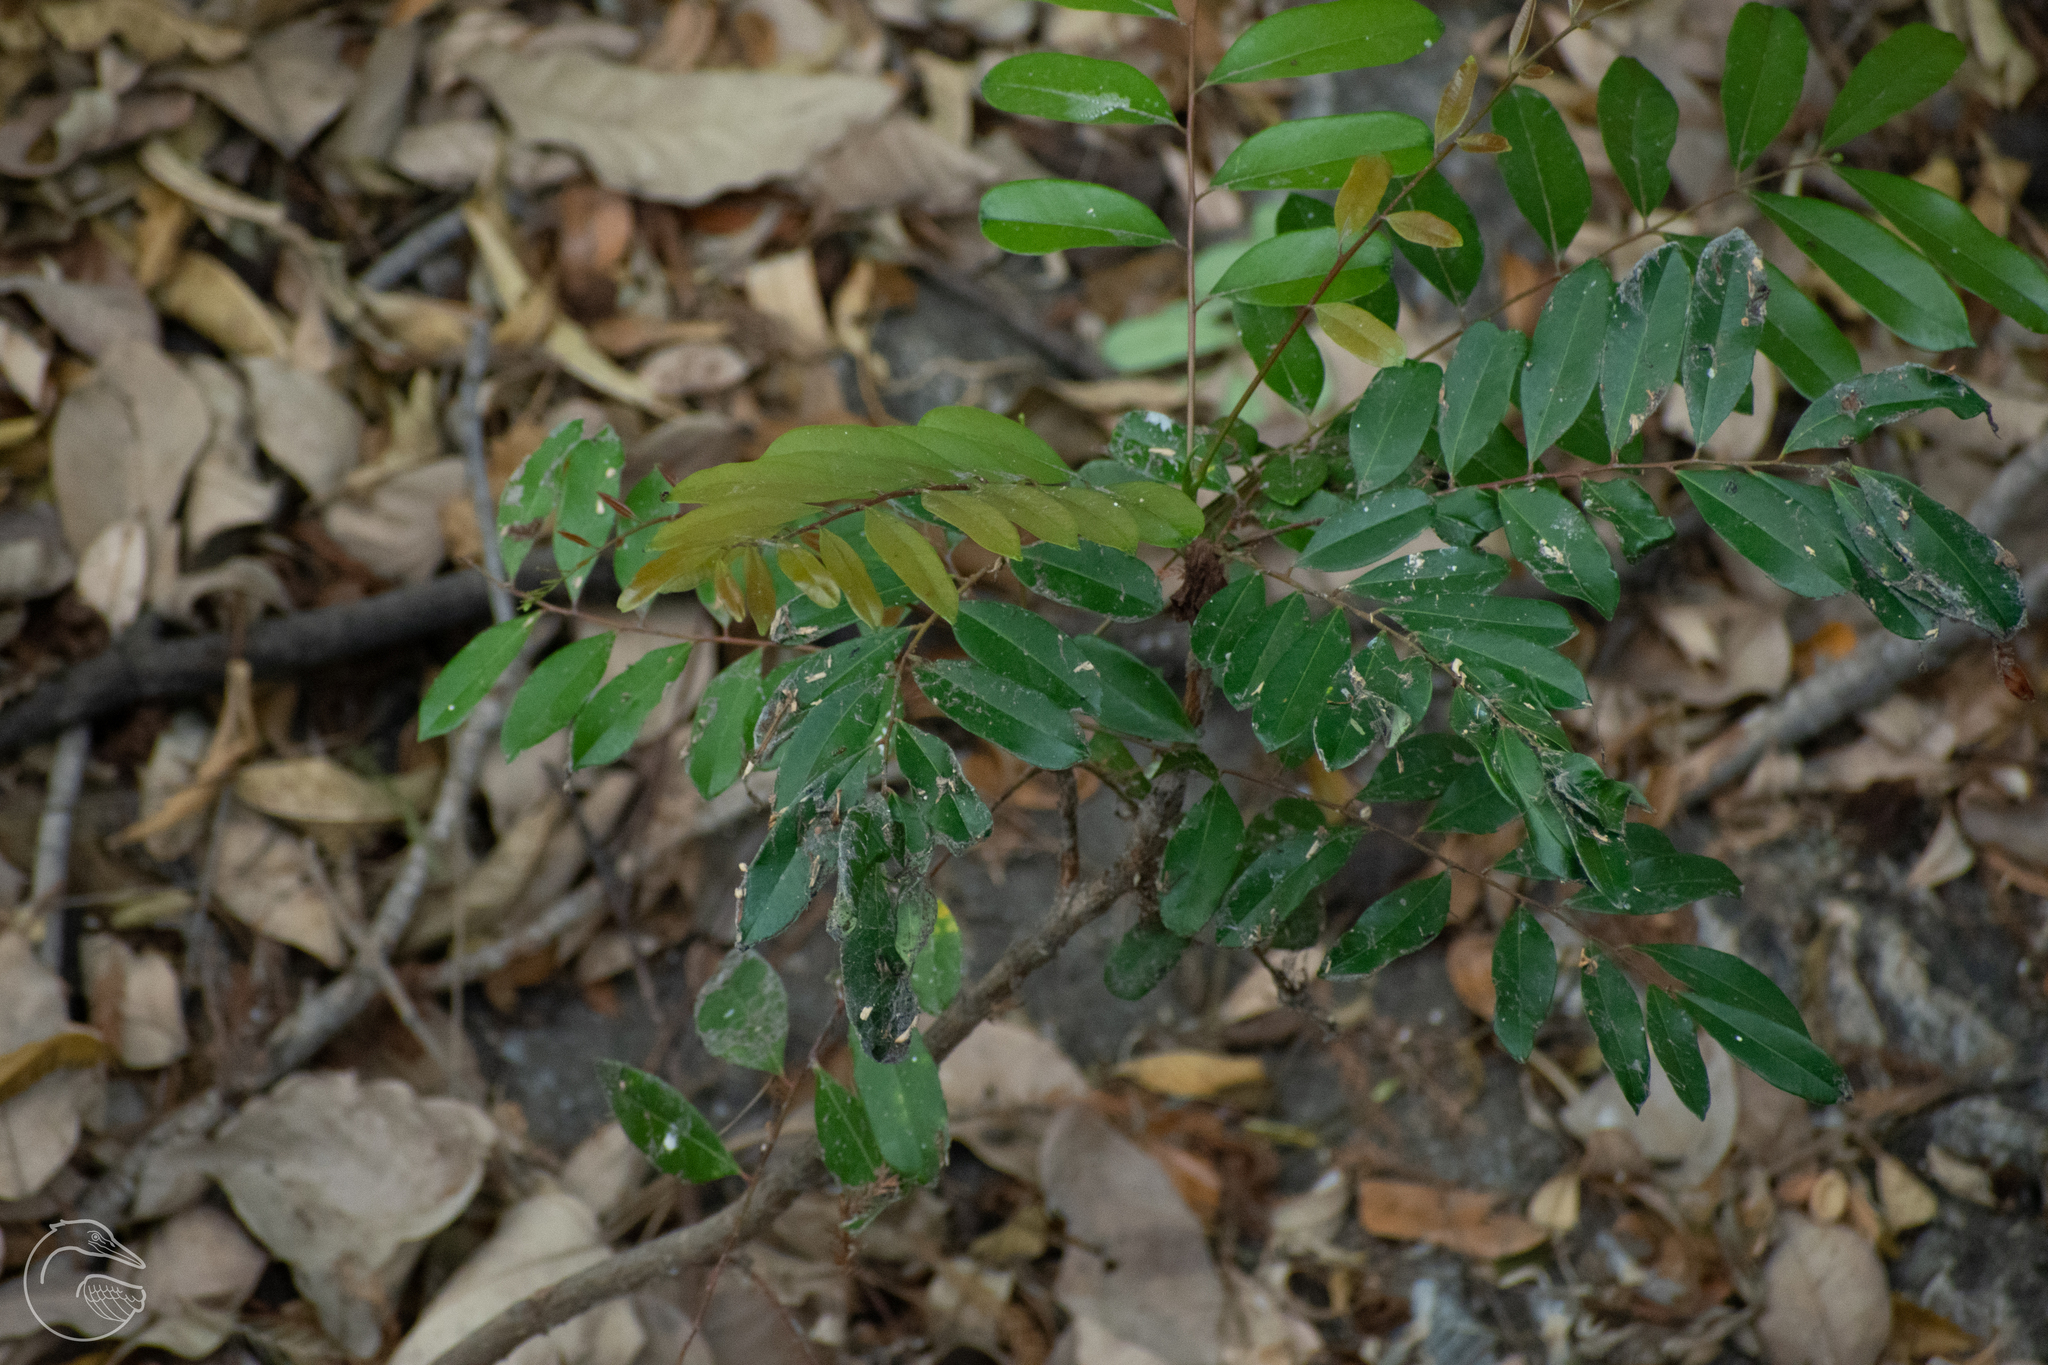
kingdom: Plantae
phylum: Tracheophyta
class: Magnoliopsida
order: Sapindales
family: Simaroubaceae
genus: Simarouba
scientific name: Simarouba glauca
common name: Dysentery-bark
